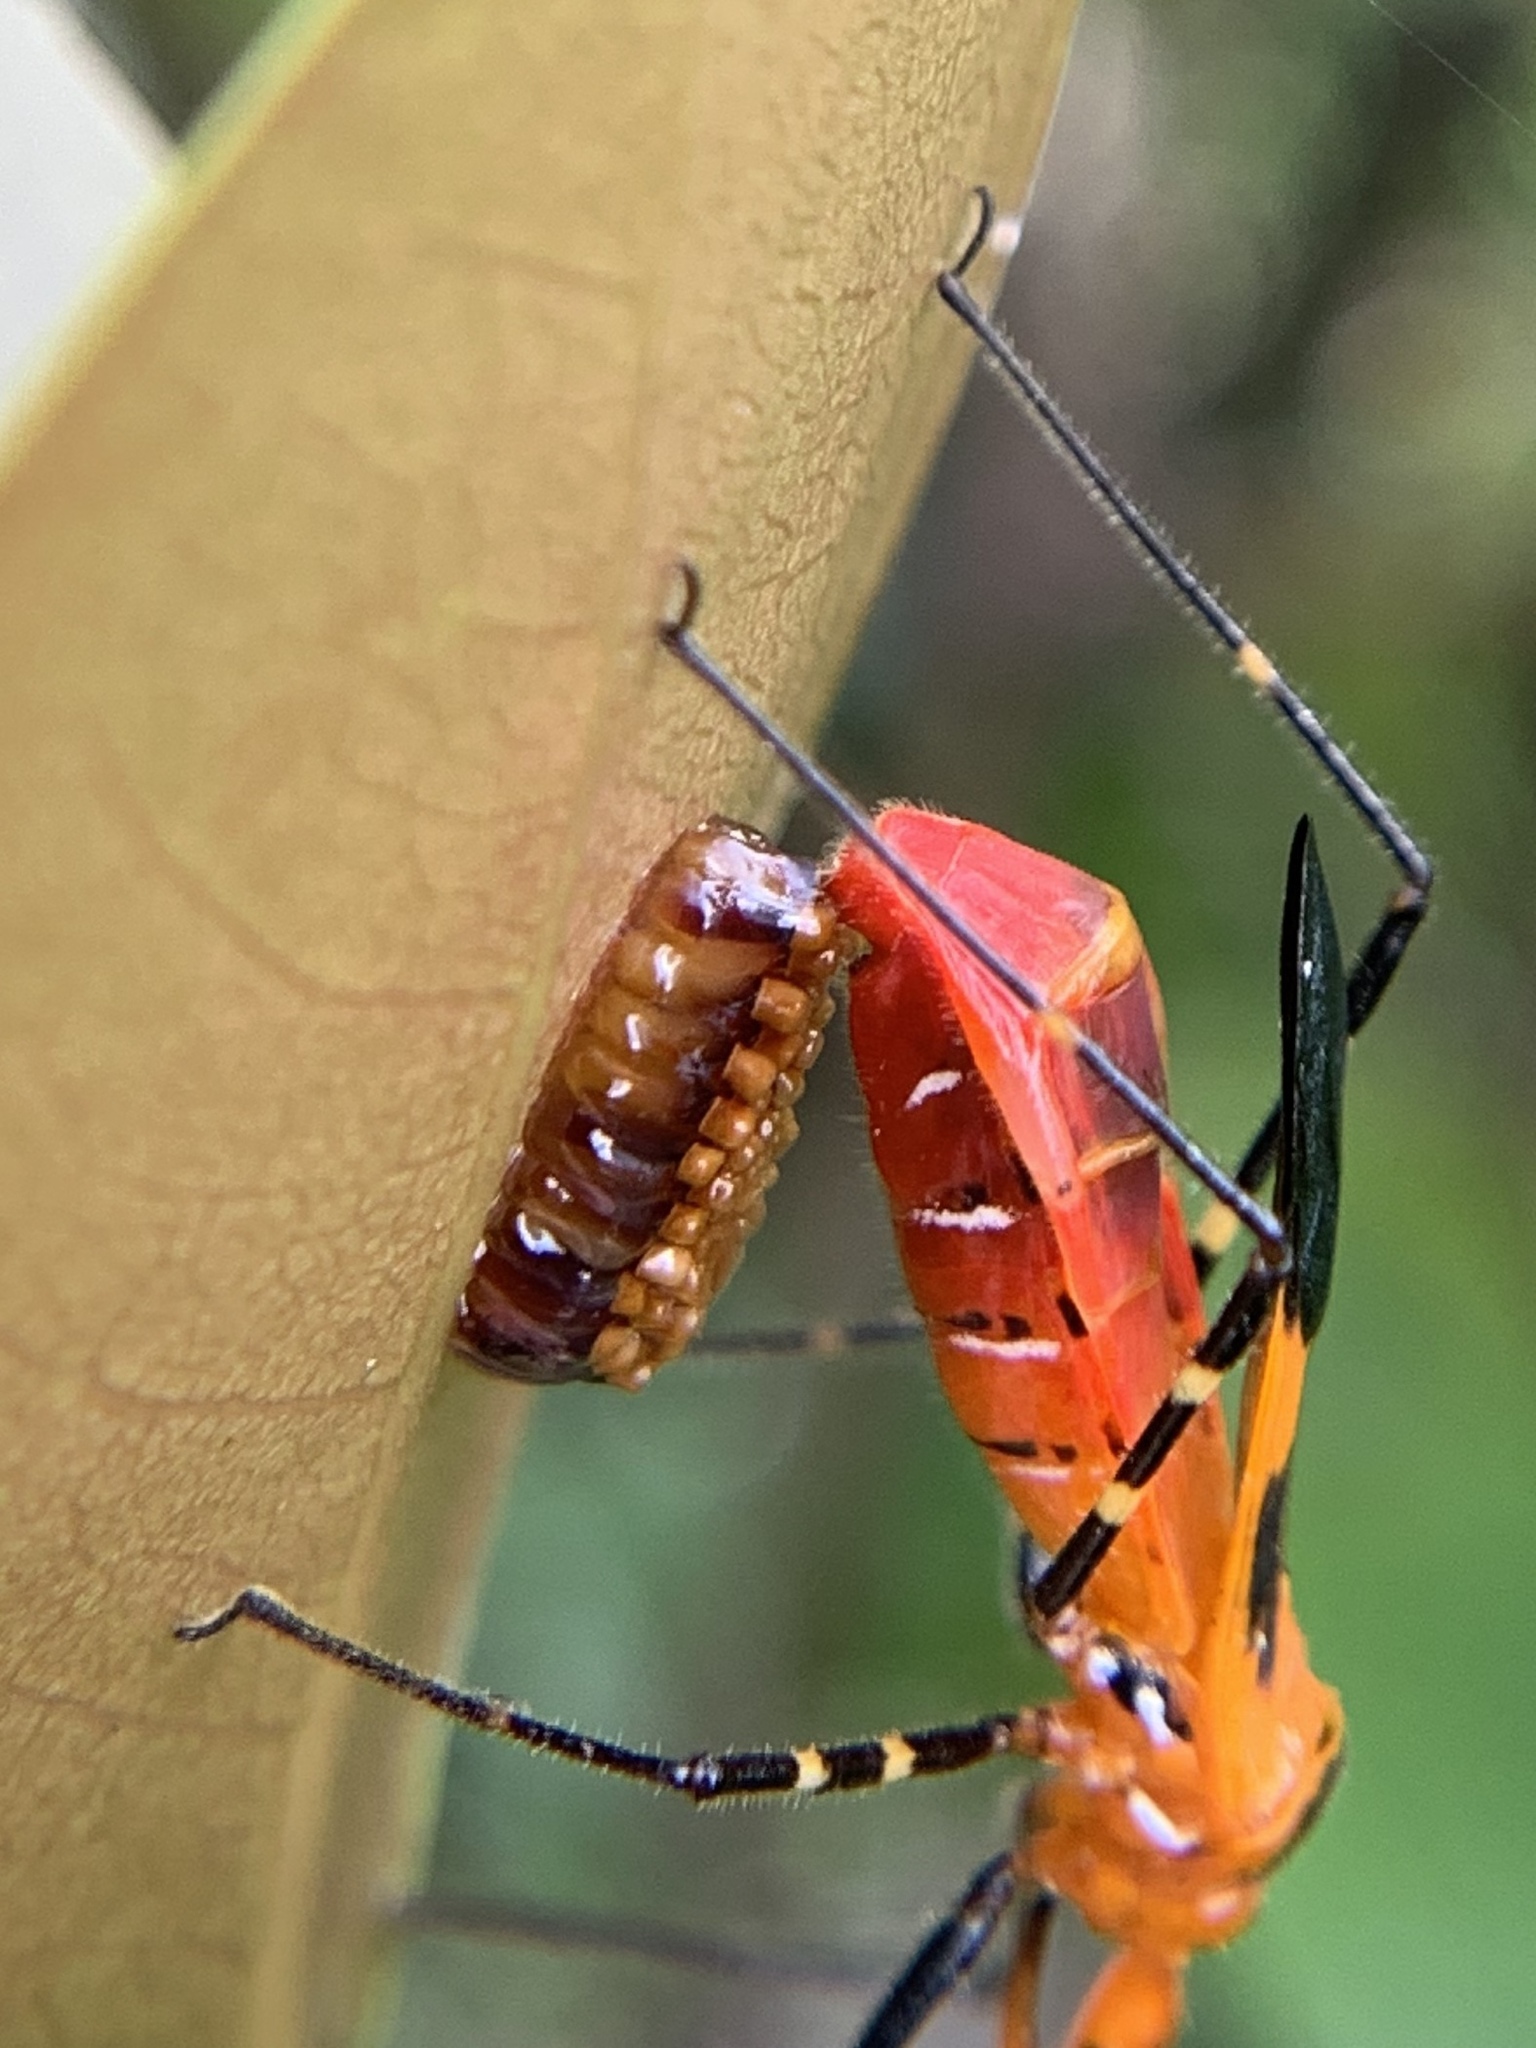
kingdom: Animalia
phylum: Arthropoda
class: Insecta
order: Hemiptera
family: Reduviidae
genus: Zelus
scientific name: Zelus longipes
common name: Milkweed assassin bug
